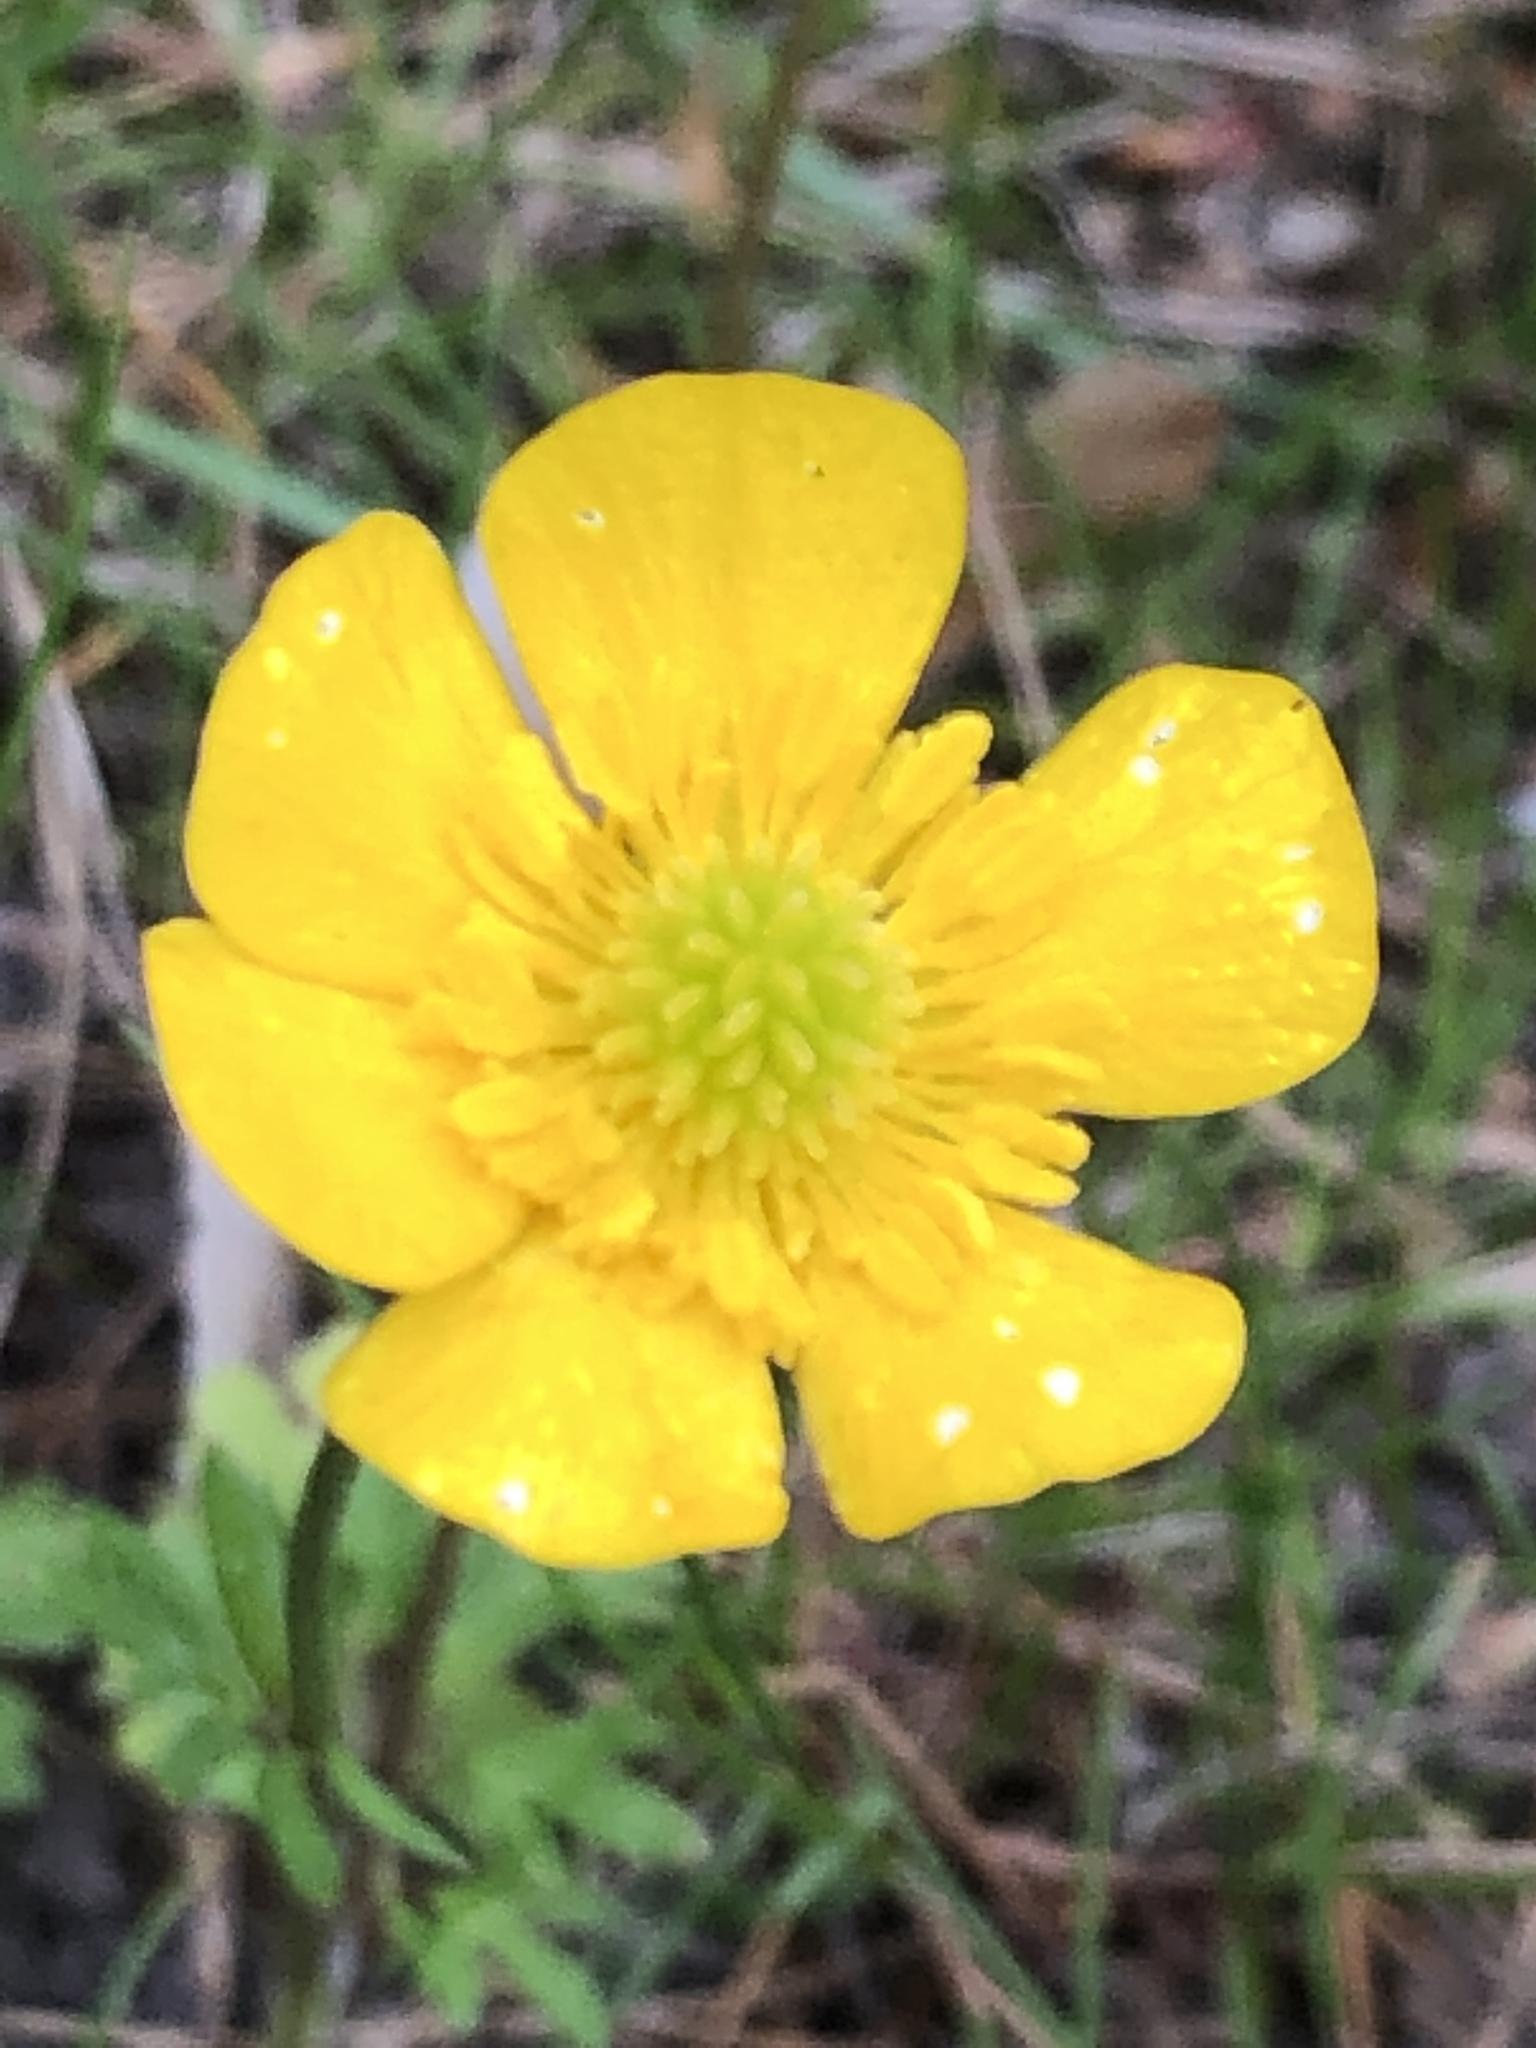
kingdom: Plantae
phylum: Tracheophyta
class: Magnoliopsida
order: Ranunculales
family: Ranunculaceae
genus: Ranunculus
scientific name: Ranunculus bulbosus
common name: Bulbous buttercup
